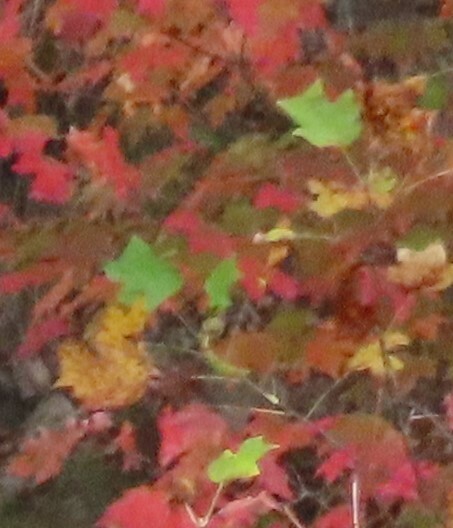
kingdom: Plantae
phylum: Tracheophyta
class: Magnoliopsida
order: Magnoliales
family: Magnoliaceae
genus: Liriodendron
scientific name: Liriodendron tulipifera
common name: Tulip tree
